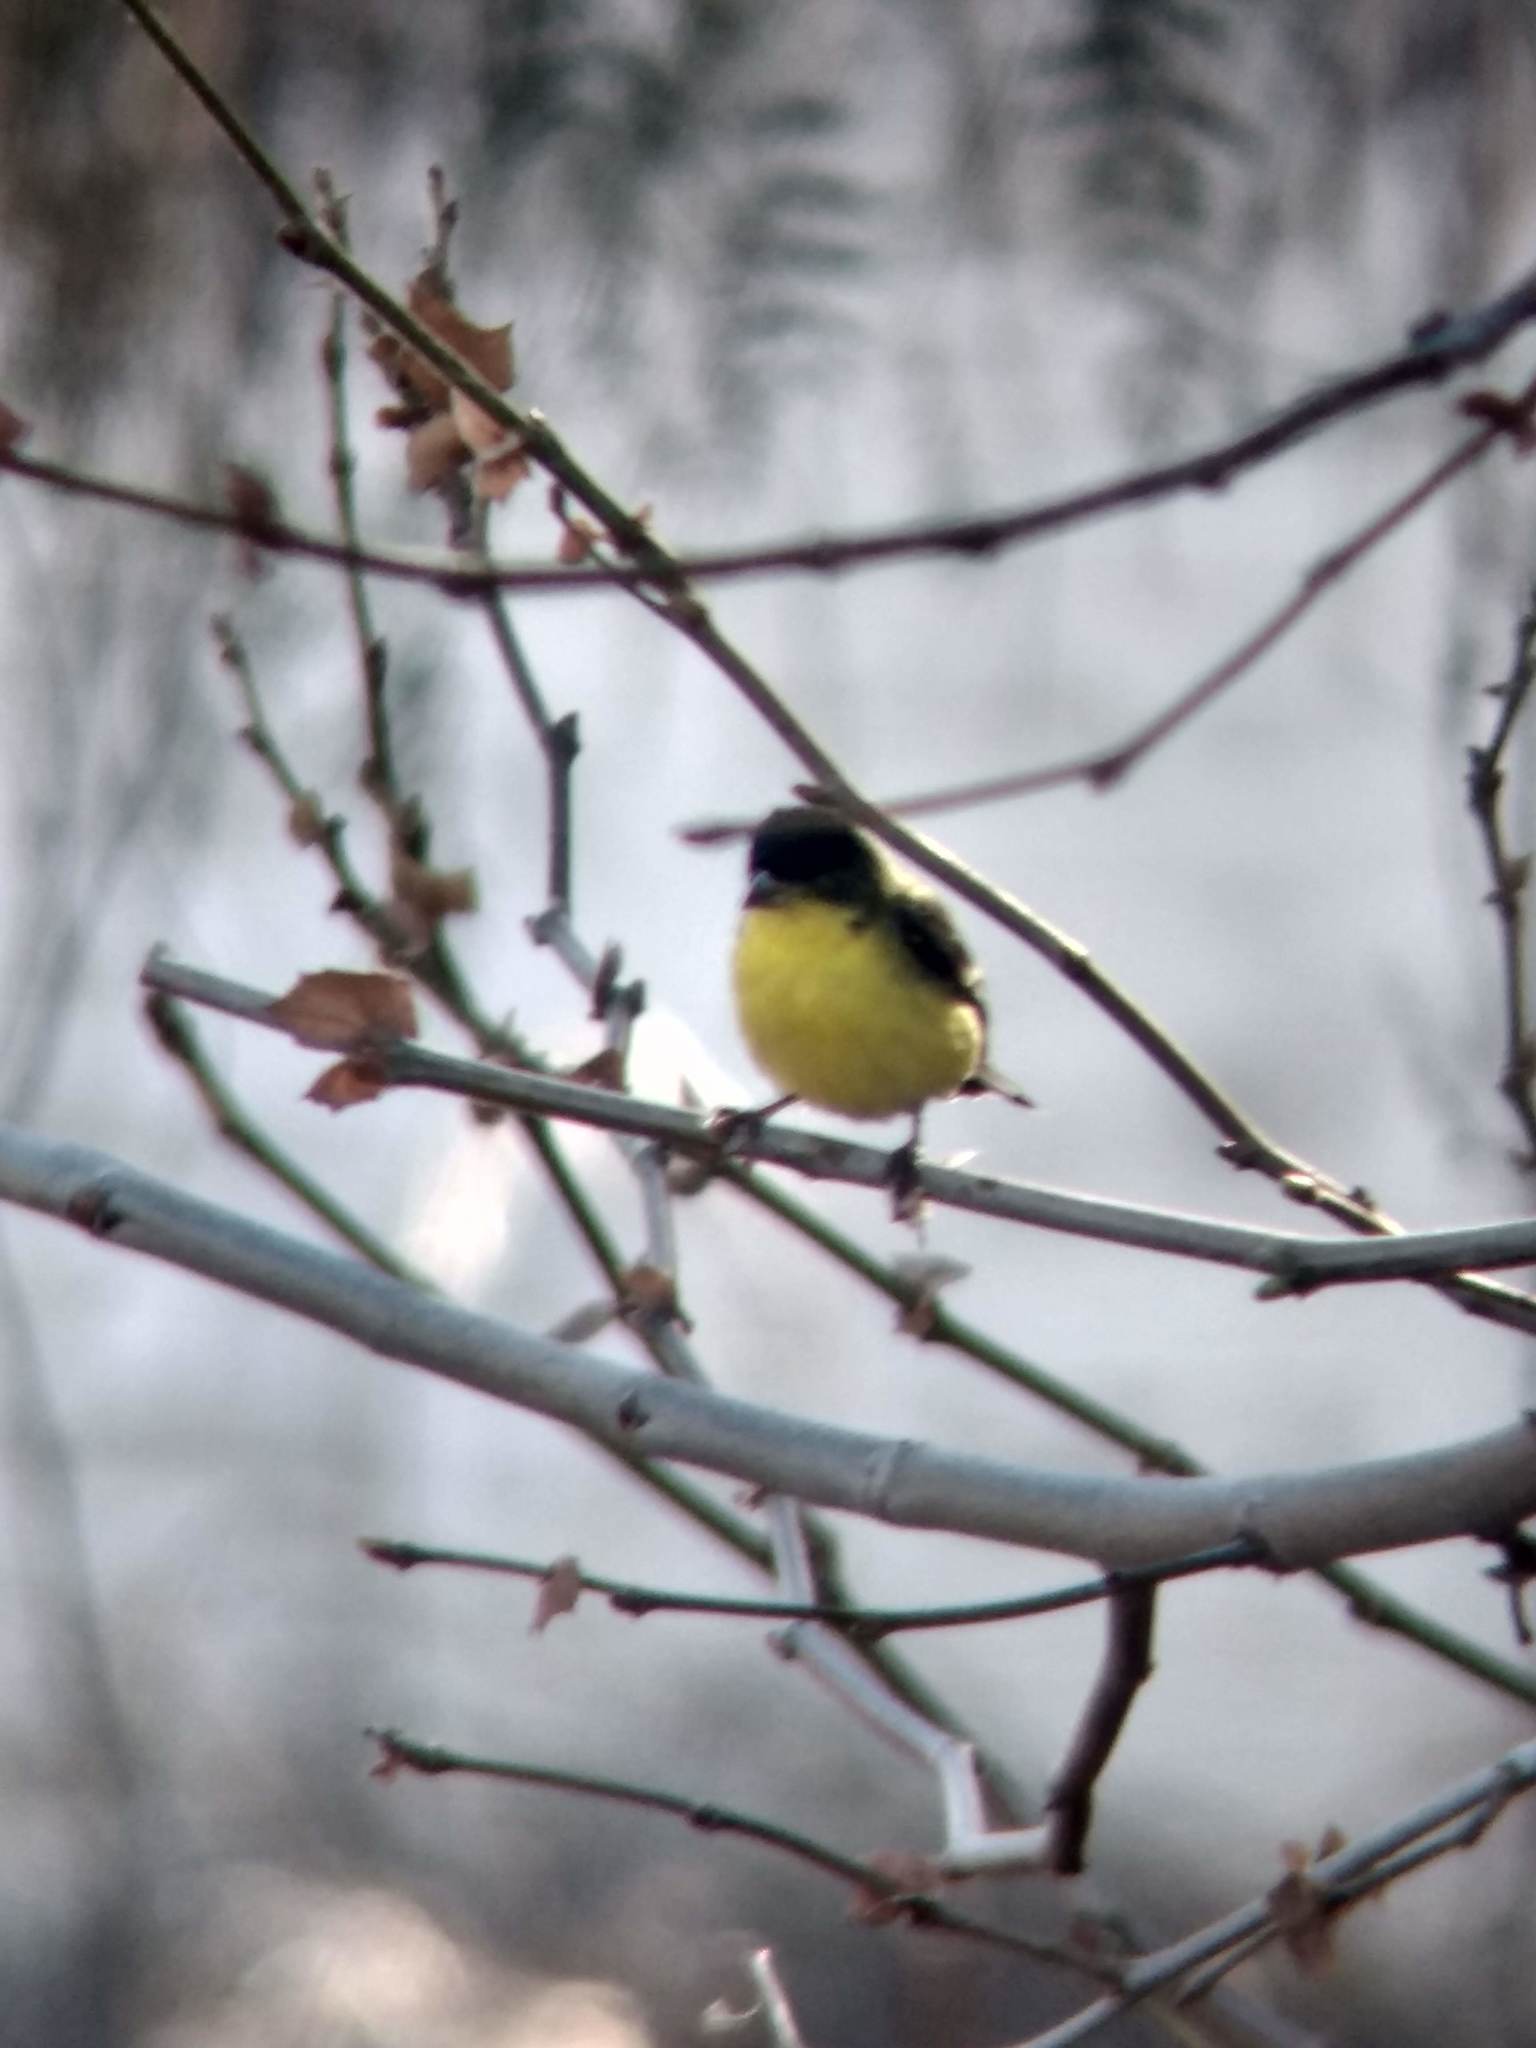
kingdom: Animalia
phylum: Chordata
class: Aves
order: Passeriformes
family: Fringillidae
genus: Spinus
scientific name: Spinus psaltria
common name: Lesser goldfinch
